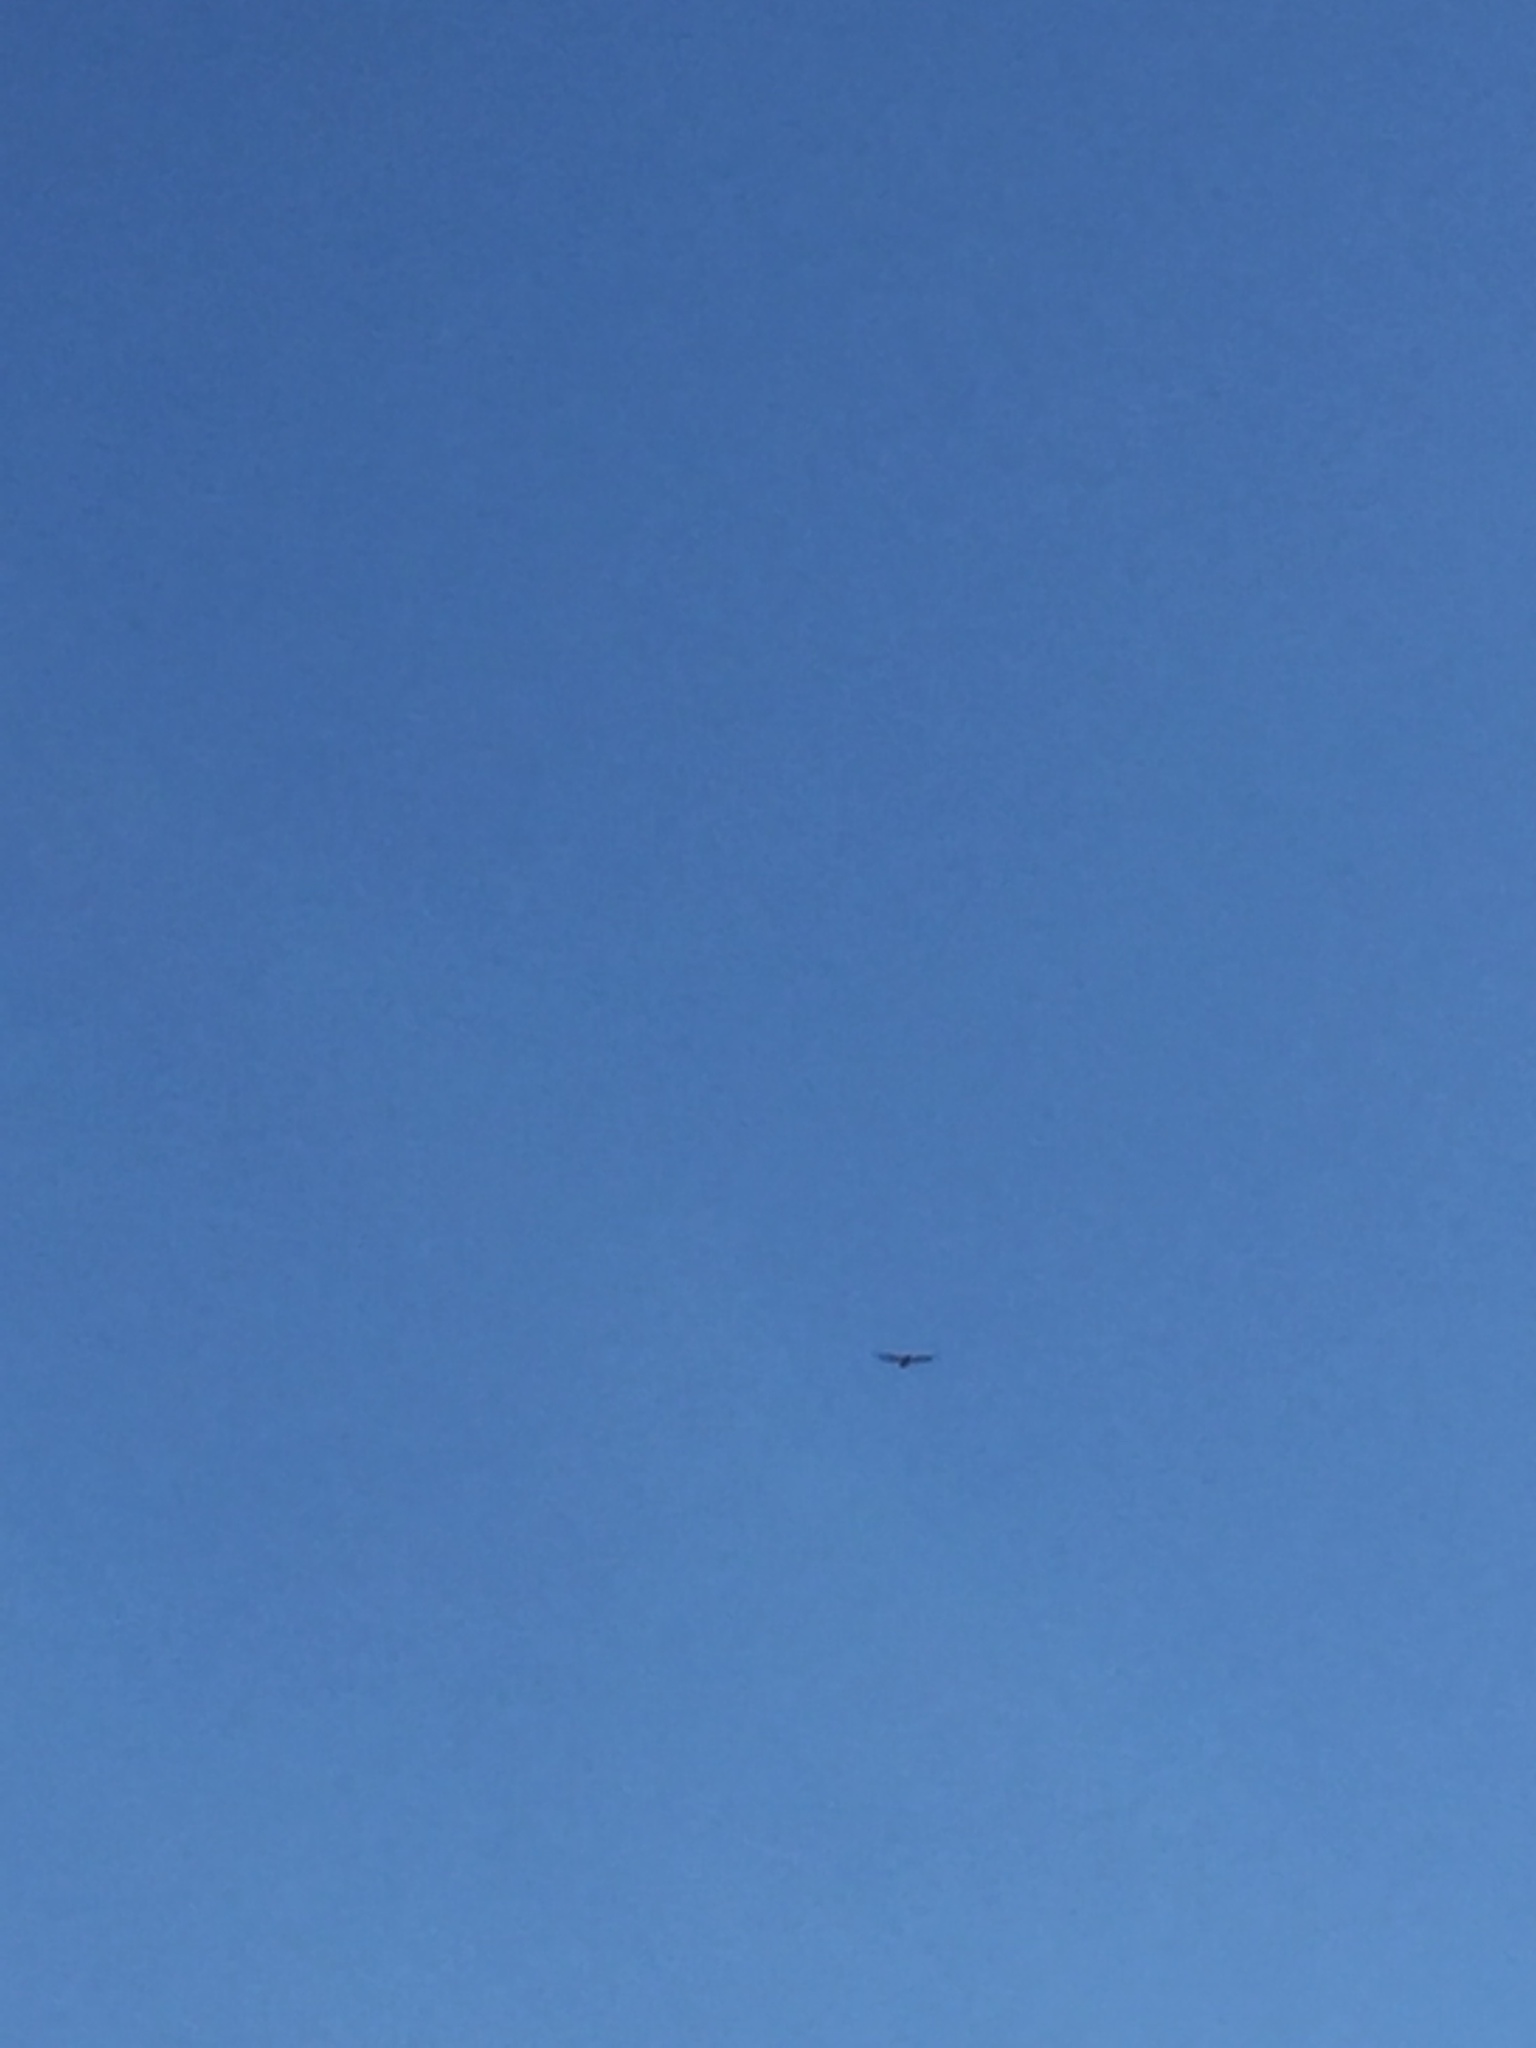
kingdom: Animalia
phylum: Chordata
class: Aves
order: Accipitriformes
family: Accipitridae
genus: Buteo
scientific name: Buteo jamaicensis
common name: Red-tailed hawk
